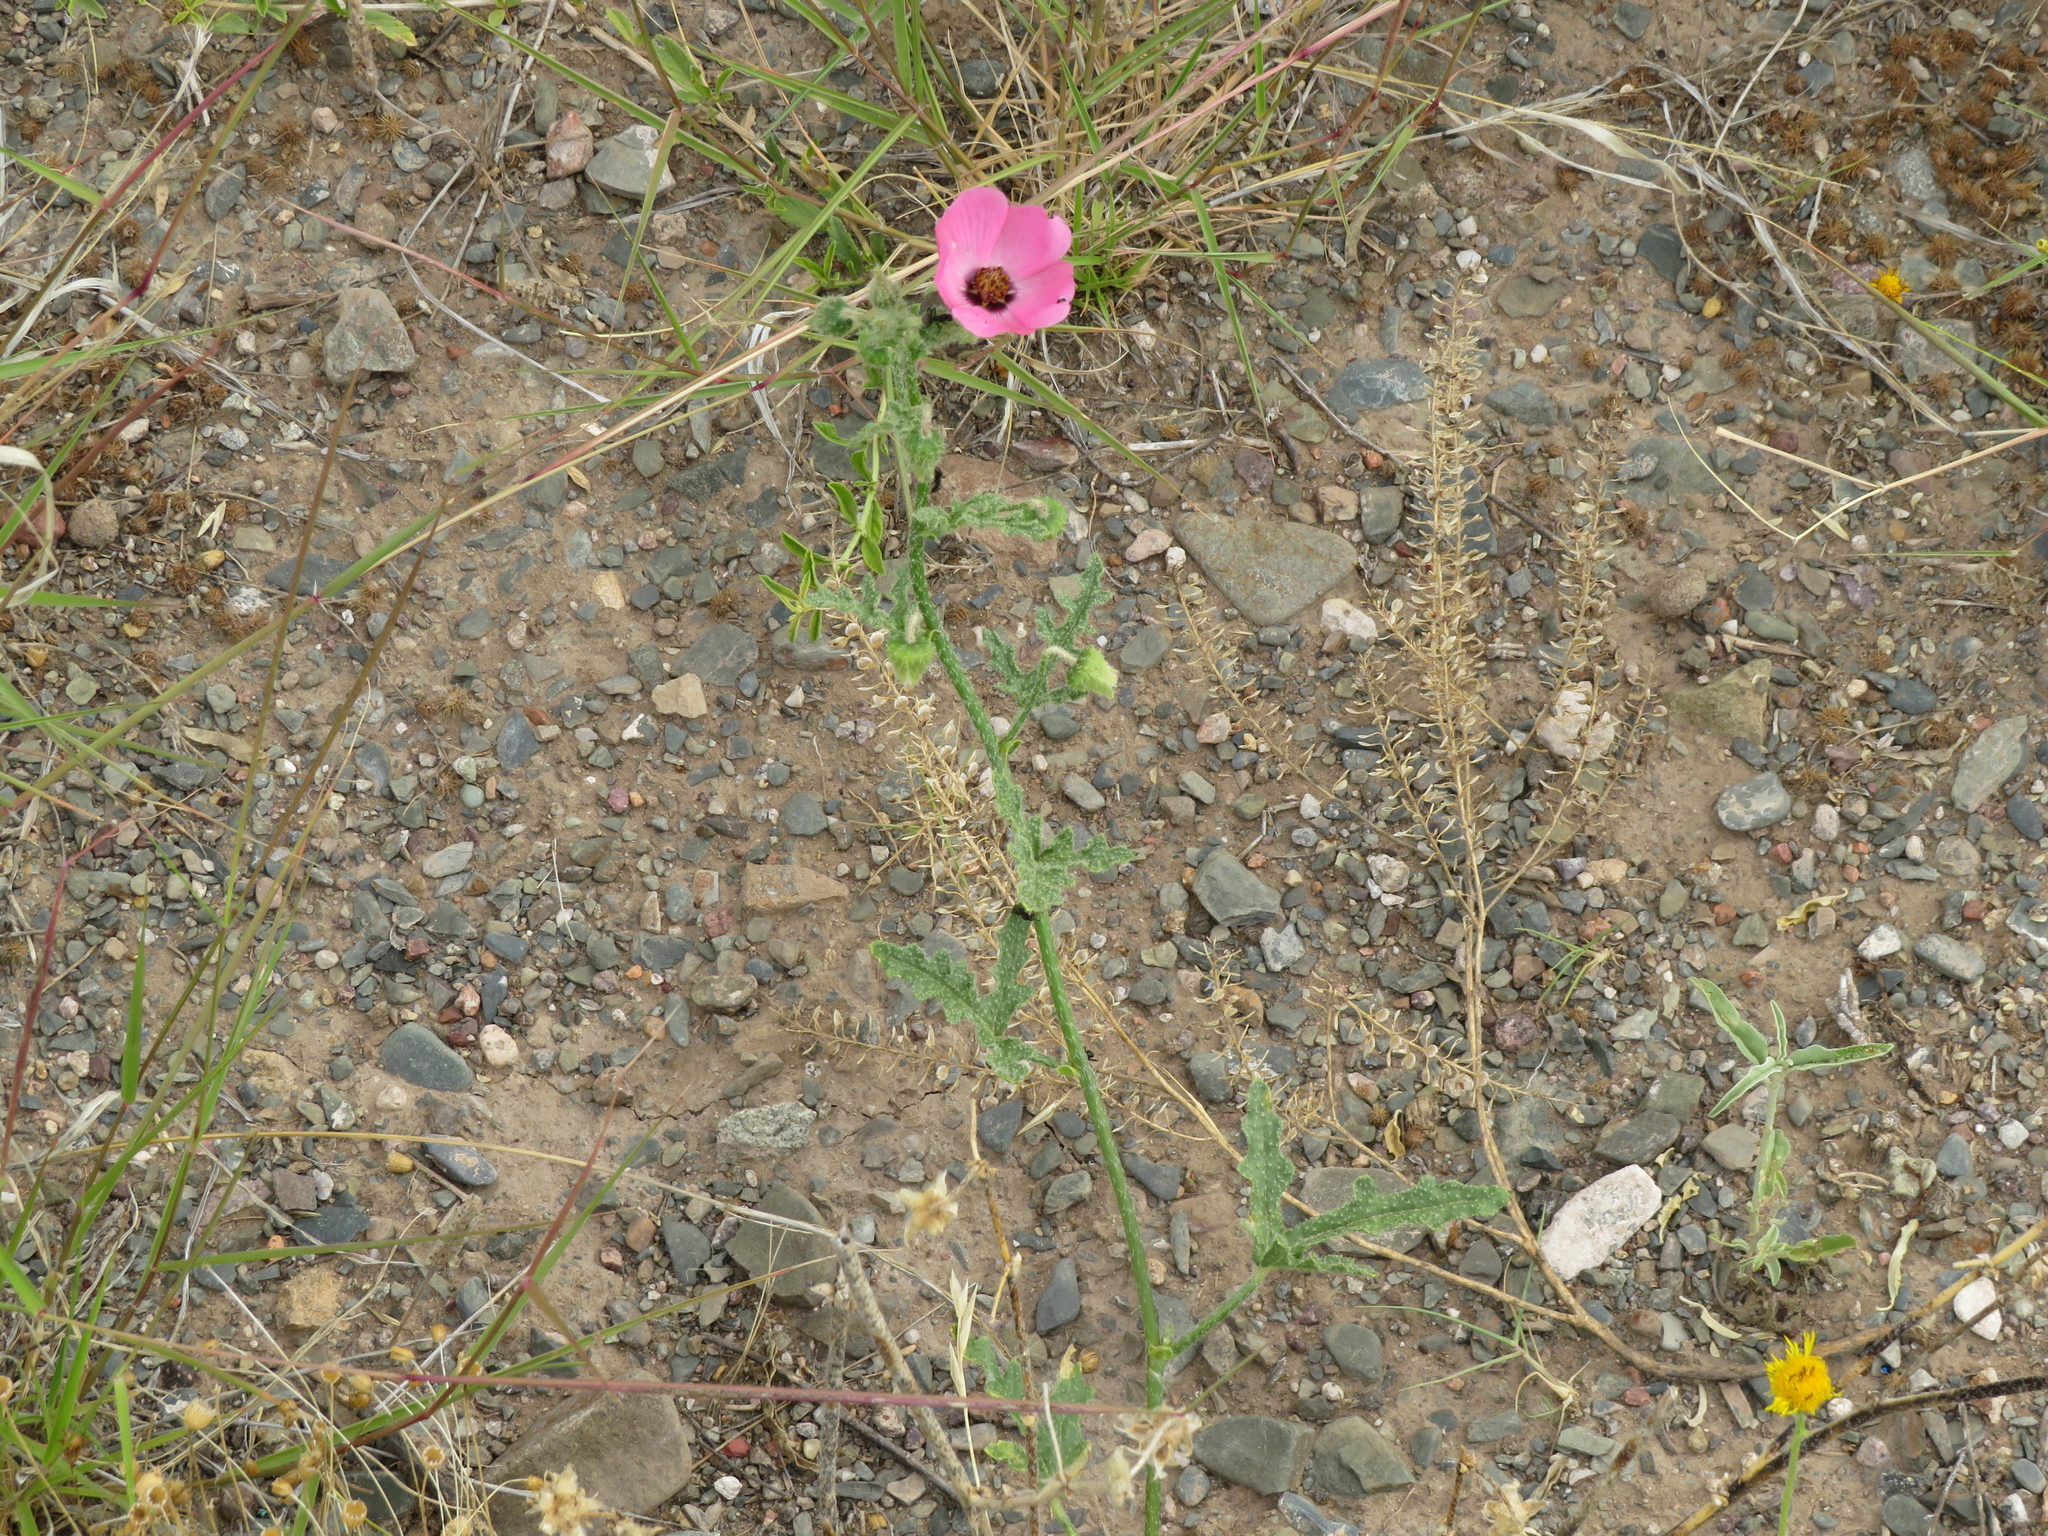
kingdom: Plantae
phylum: Tracheophyta
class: Magnoliopsida
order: Malvales
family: Malvaceae
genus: Lecanophora
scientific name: Lecanophora heterophylla
